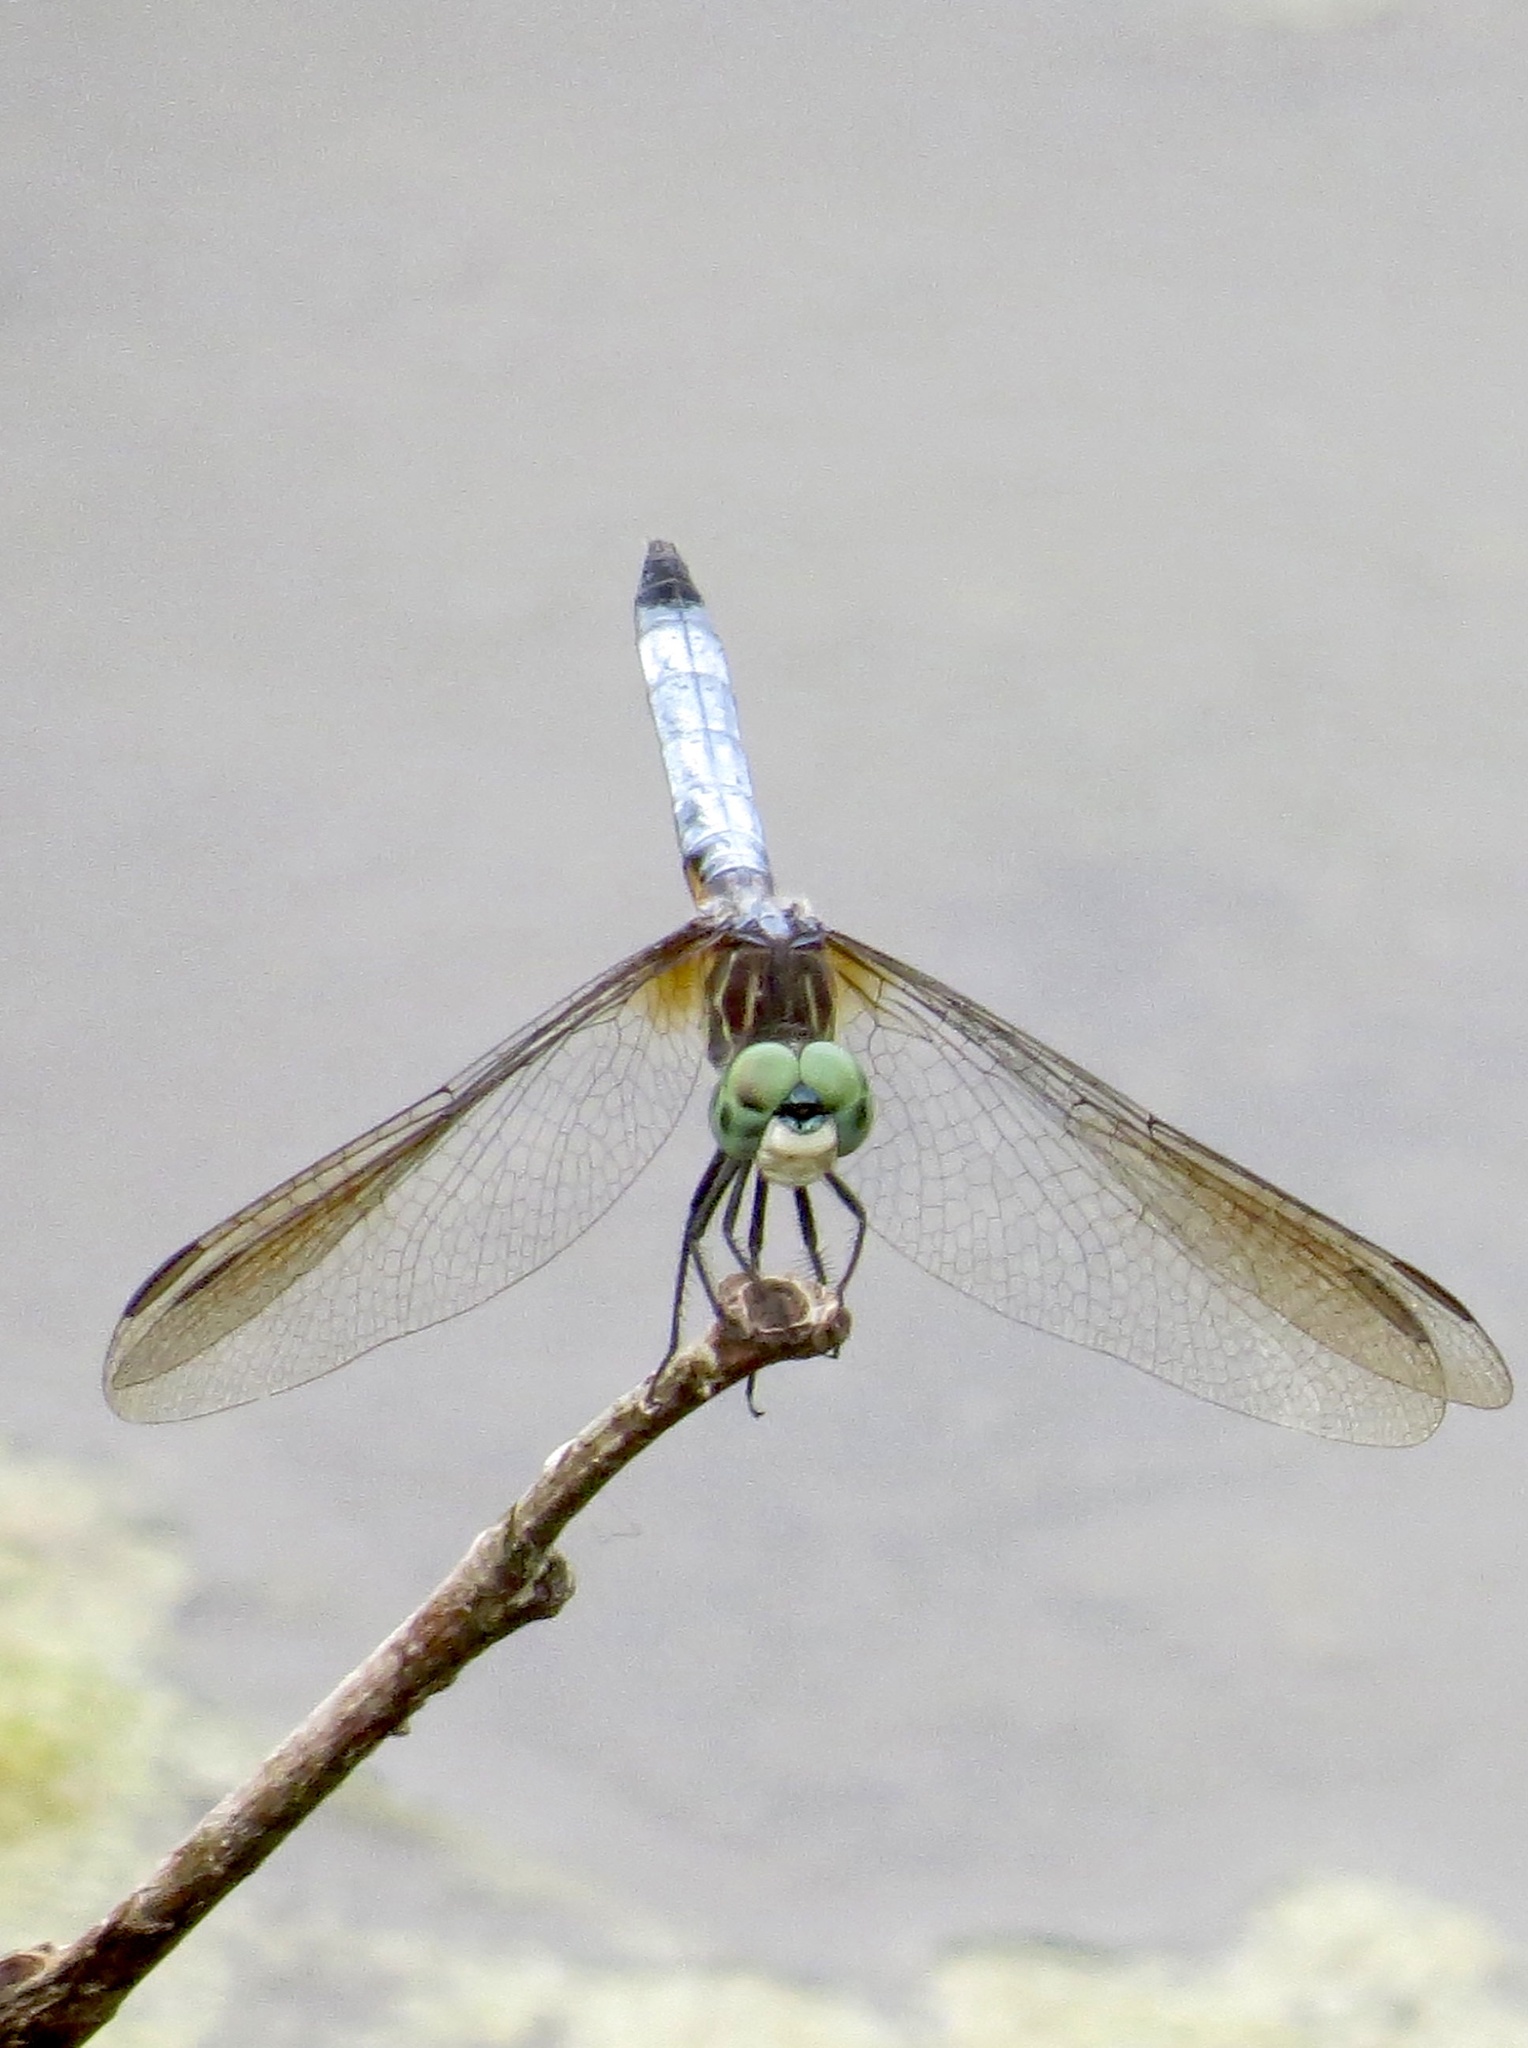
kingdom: Animalia
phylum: Arthropoda
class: Insecta
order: Odonata
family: Libellulidae
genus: Pachydiplax
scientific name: Pachydiplax longipennis
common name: Blue dasher
